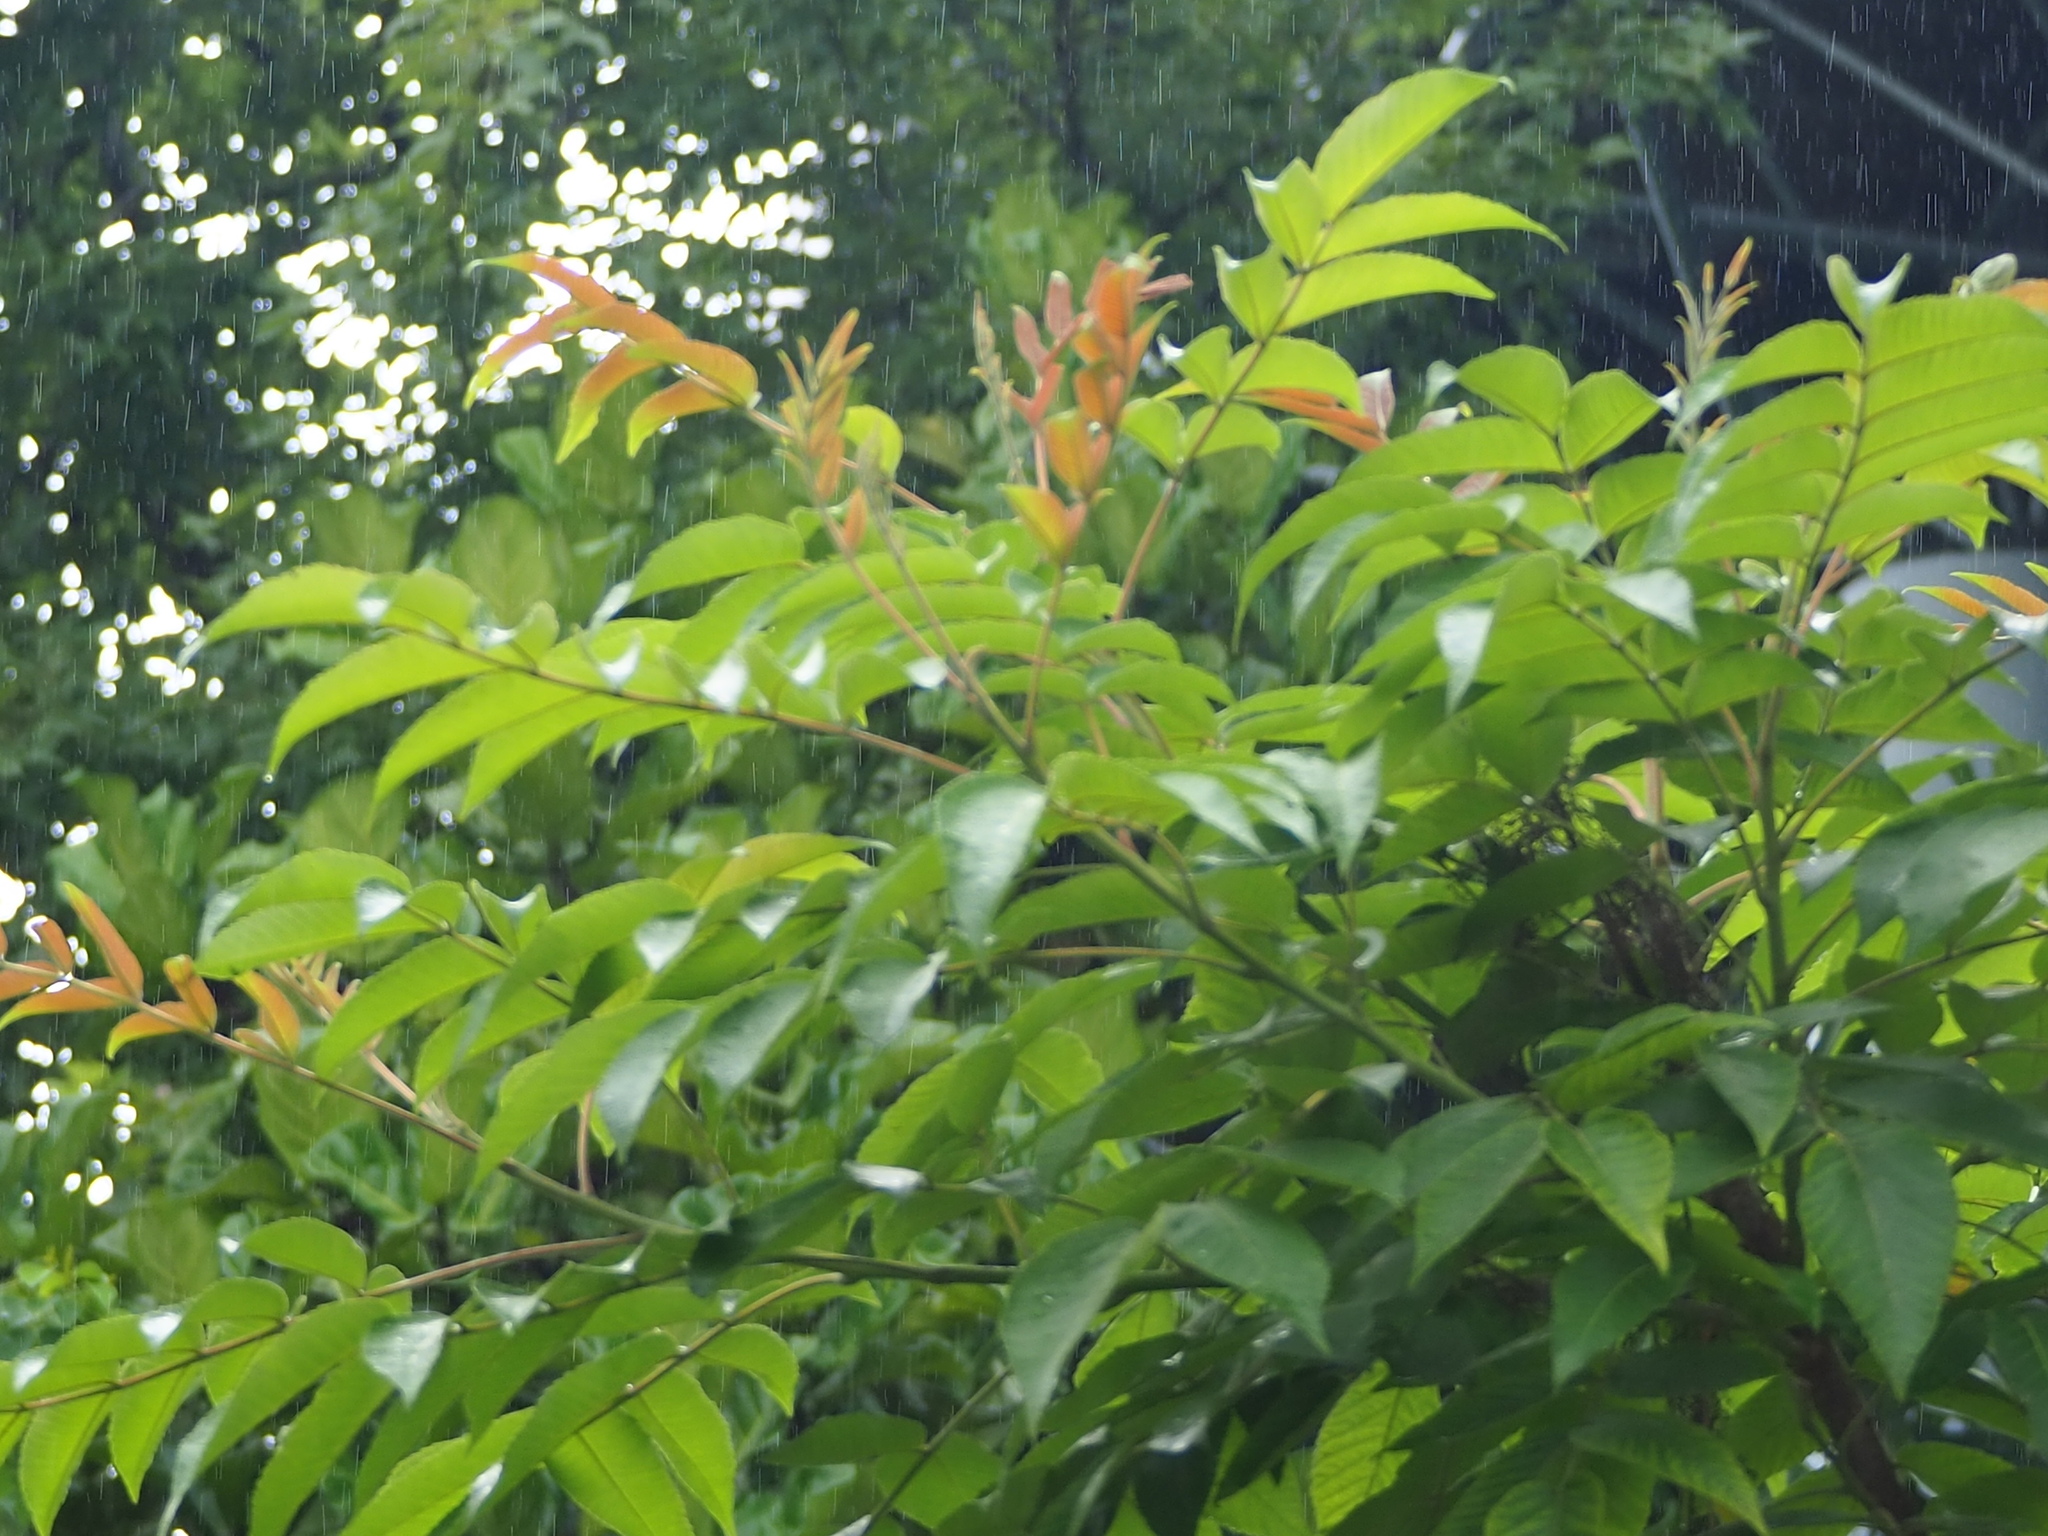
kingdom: Plantae
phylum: Tracheophyta
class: Magnoliopsida
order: Sapindales
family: Anacardiaceae
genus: Rhus
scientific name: Rhus chinensis
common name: Chinese gall
